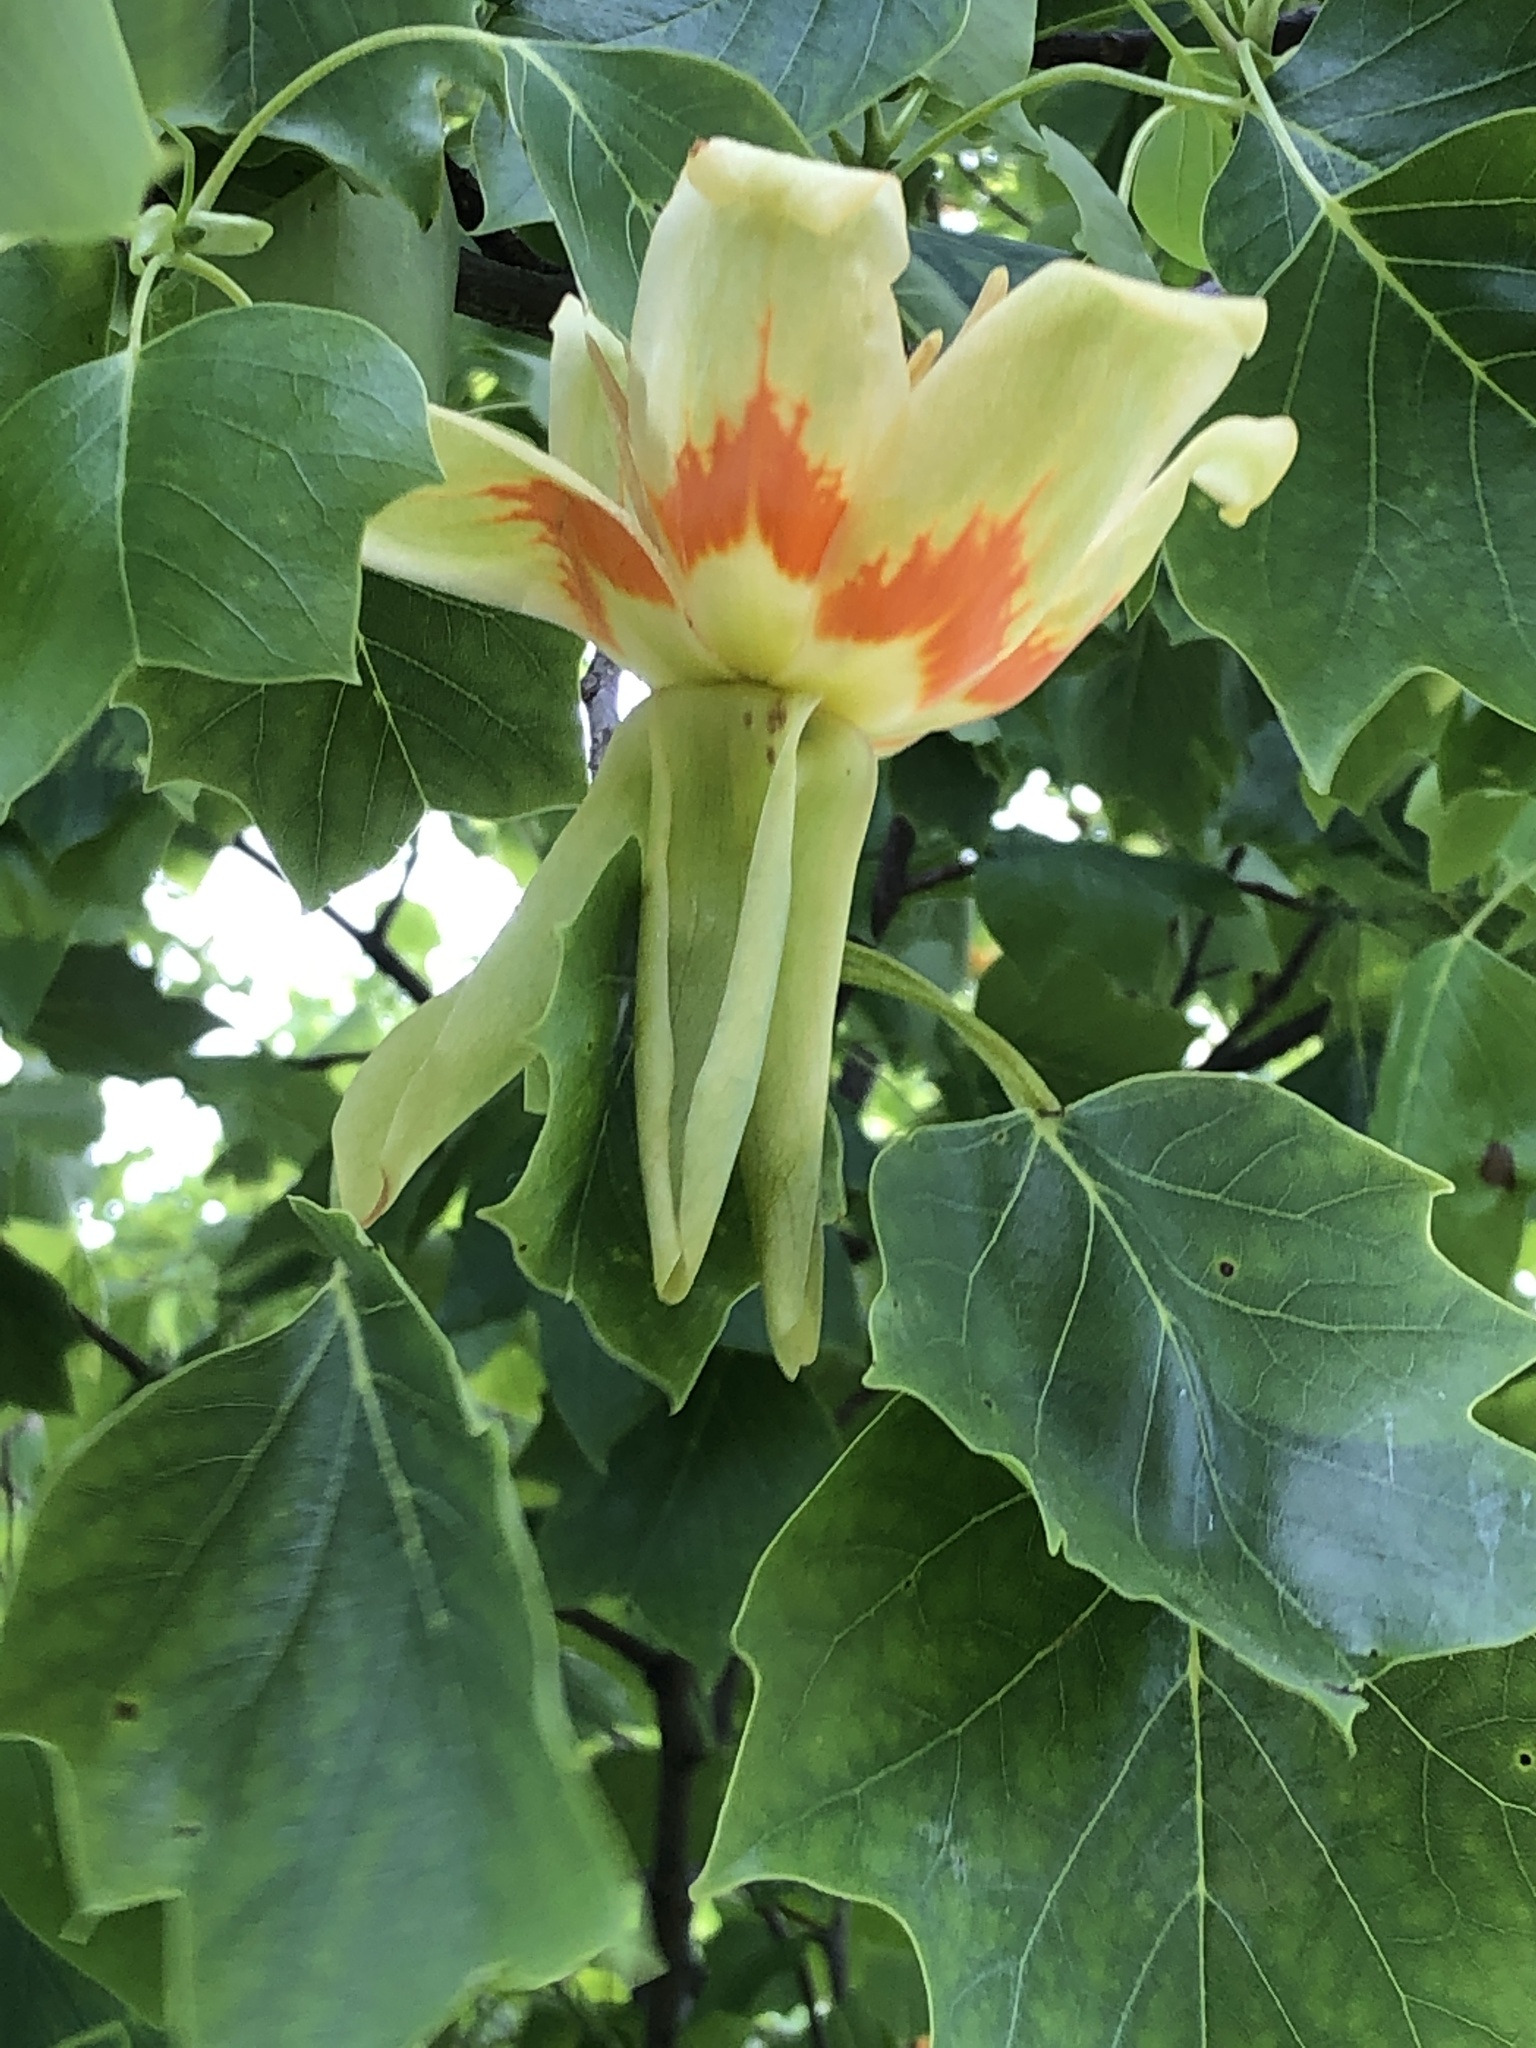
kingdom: Plantae
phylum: Tracheophyta
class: Magnoliopsida
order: Magnoliales
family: Magnoliaceae
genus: Liriodendron
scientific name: Liriodendron tulipifera
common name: Tulip tree
